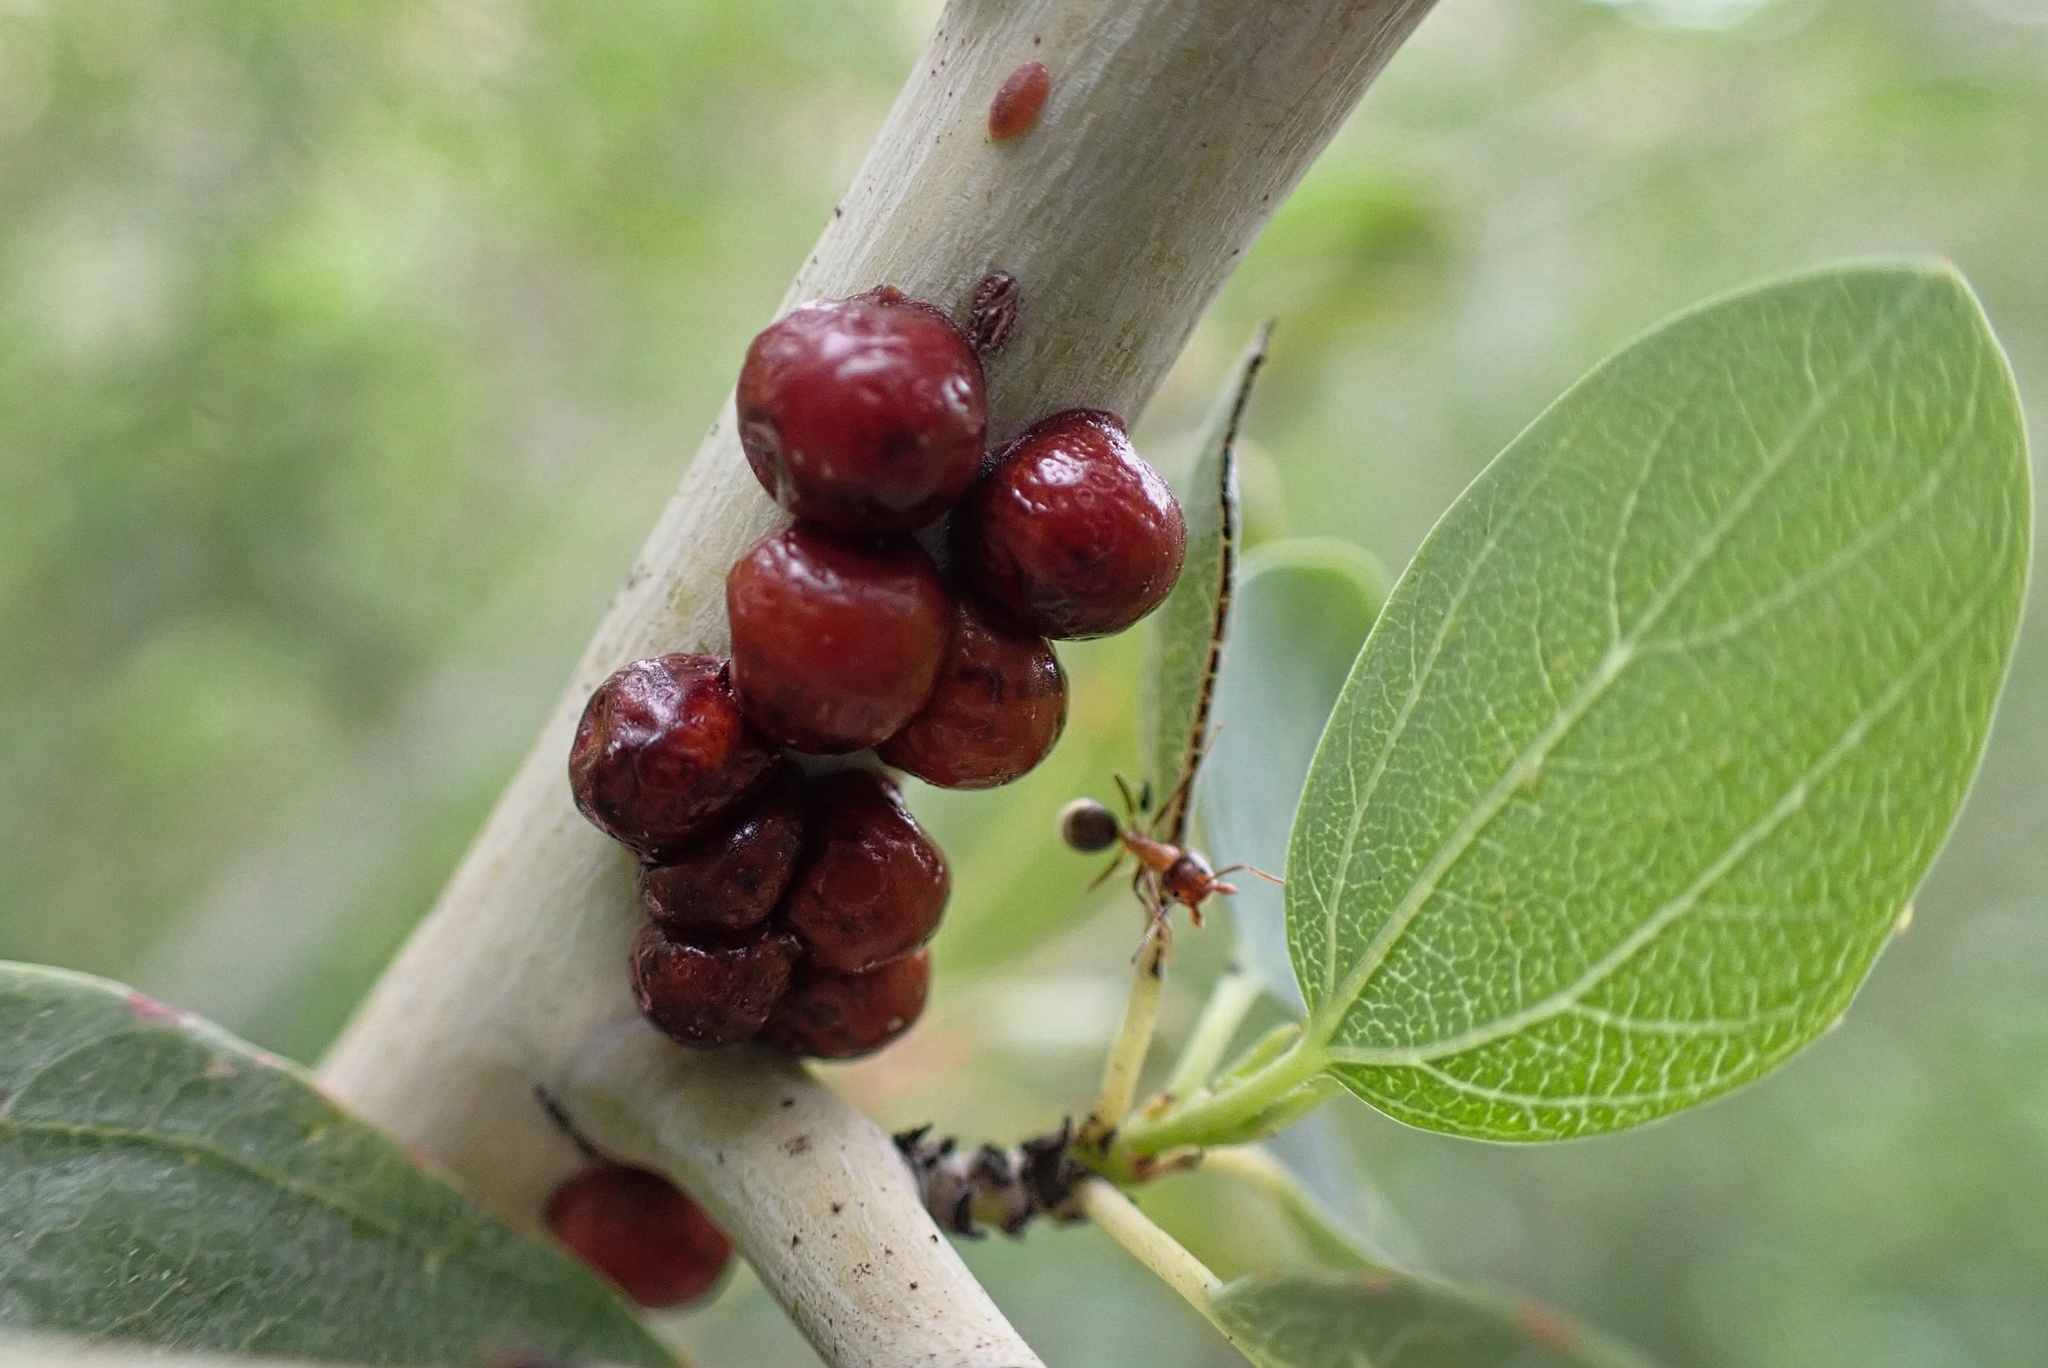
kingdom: Animalia
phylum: Arthropoda
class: Insecta
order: Hemiptera
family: Coccidae
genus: Saissetia
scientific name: Saissetia coffeae
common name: Hemispherical scale
